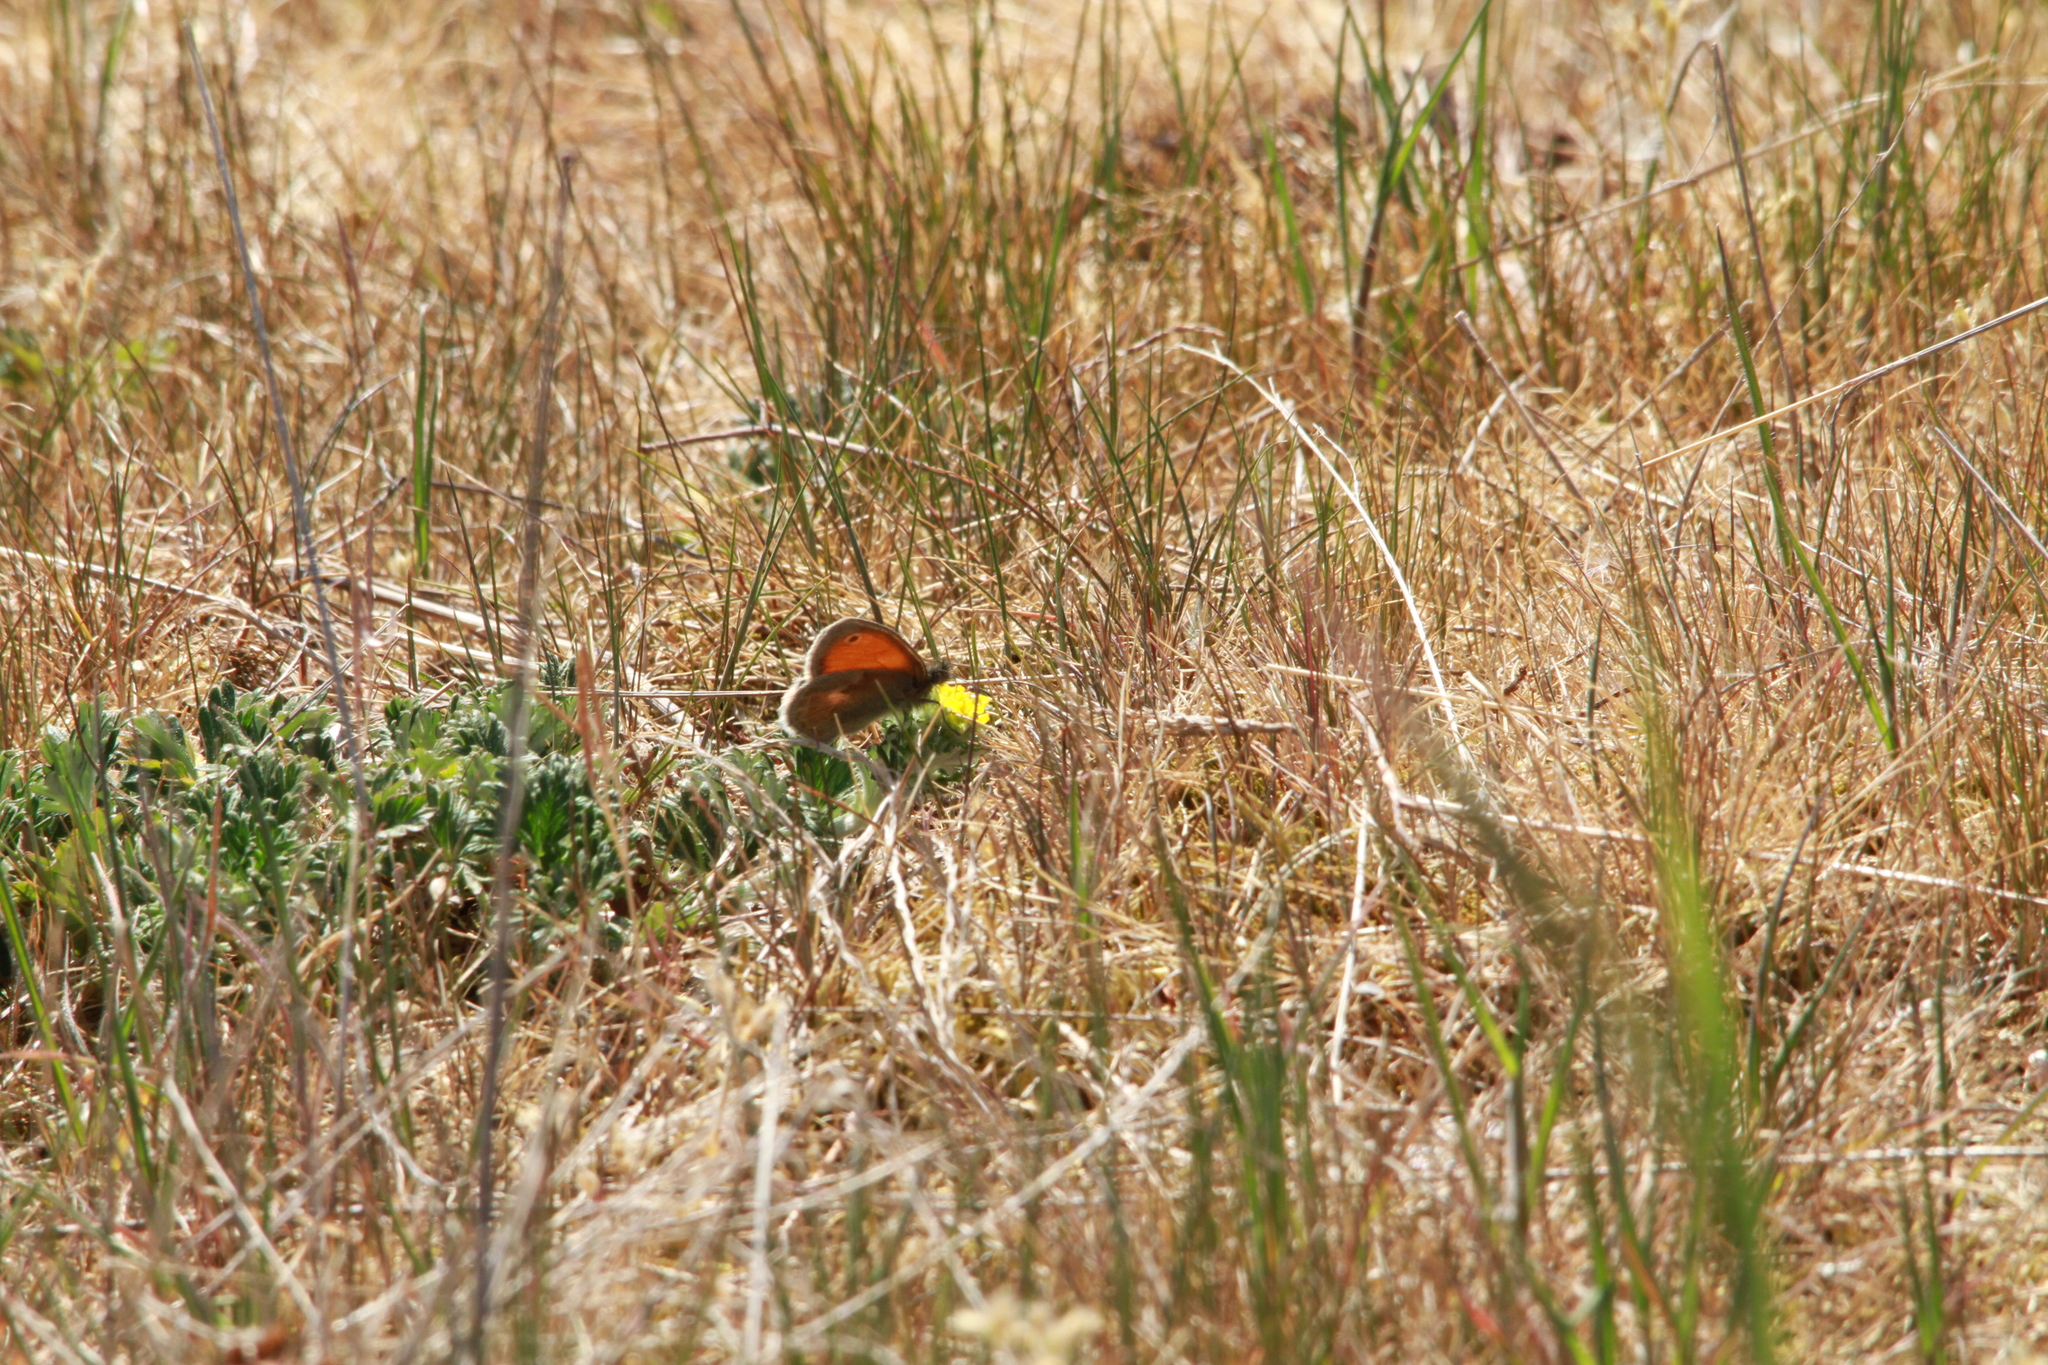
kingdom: Animalia
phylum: Arthropoda
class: Insecta
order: Lepidoptera
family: Nymphalidae
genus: Coenonympha
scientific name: Coenonympha pamphilus
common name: Small heath
